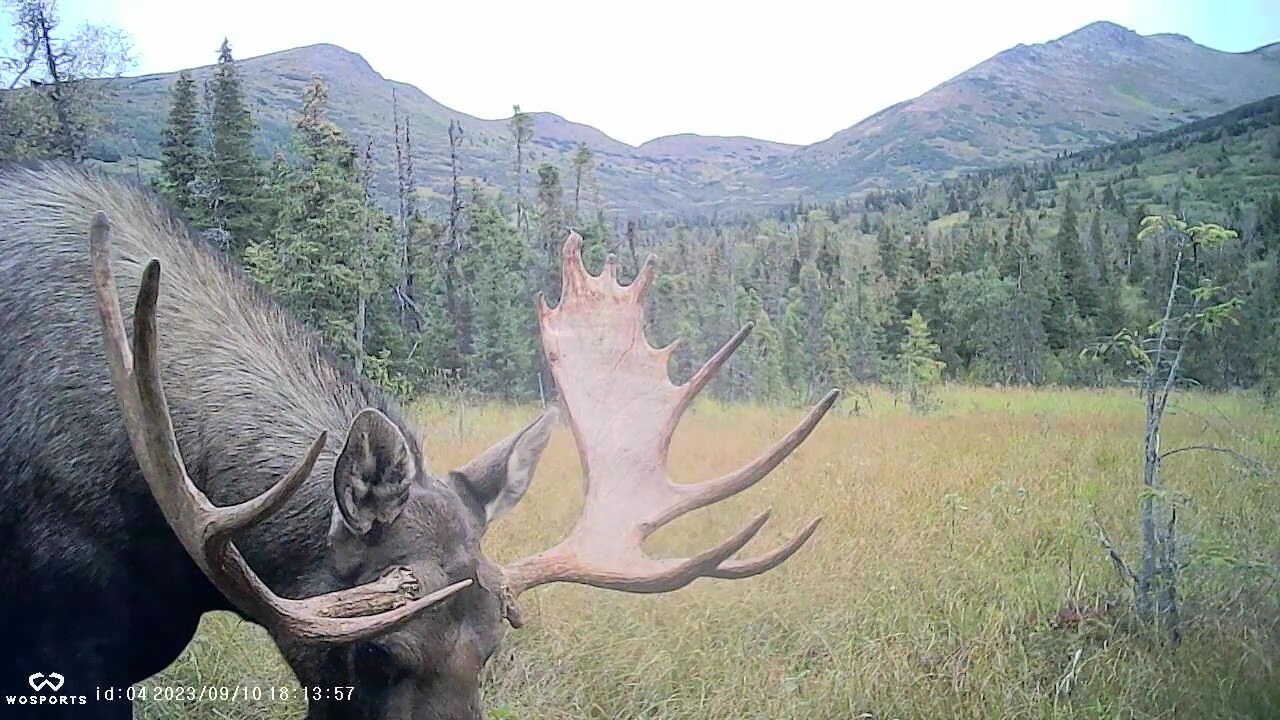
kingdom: Animalia
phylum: Chordata
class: Mammalia
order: Artiodactyla
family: Cervidae
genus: Alces
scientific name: Alces alces
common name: Moose
